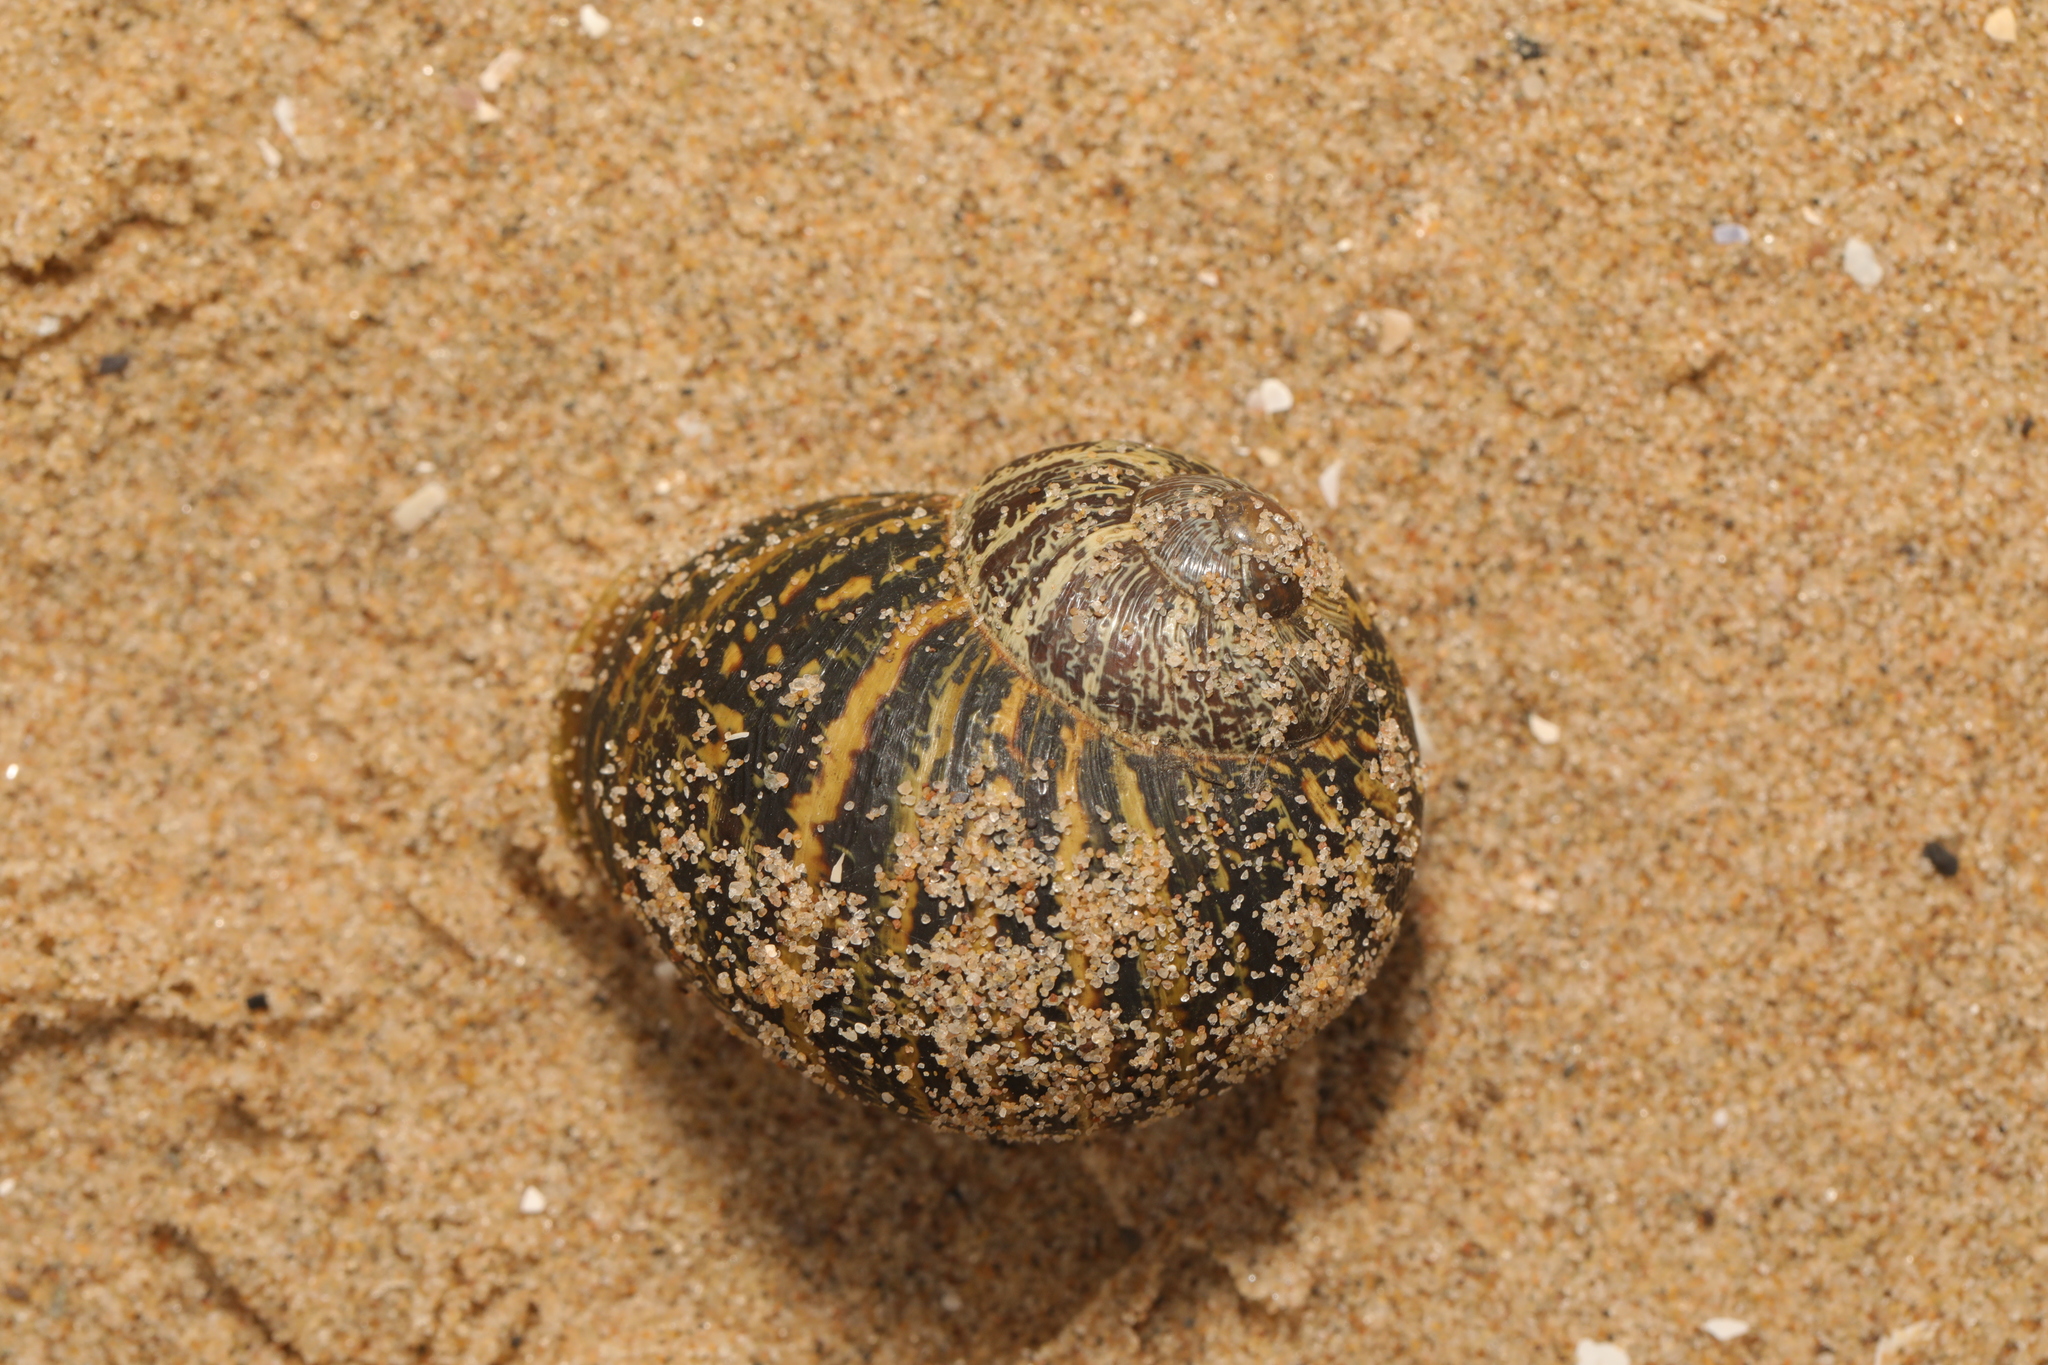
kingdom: Animalia
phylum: Mollusca
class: Gastropoda
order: Stylommatophora
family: Helicidae
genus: Cornu
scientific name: Cornu aspersum
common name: Brown garden snail
